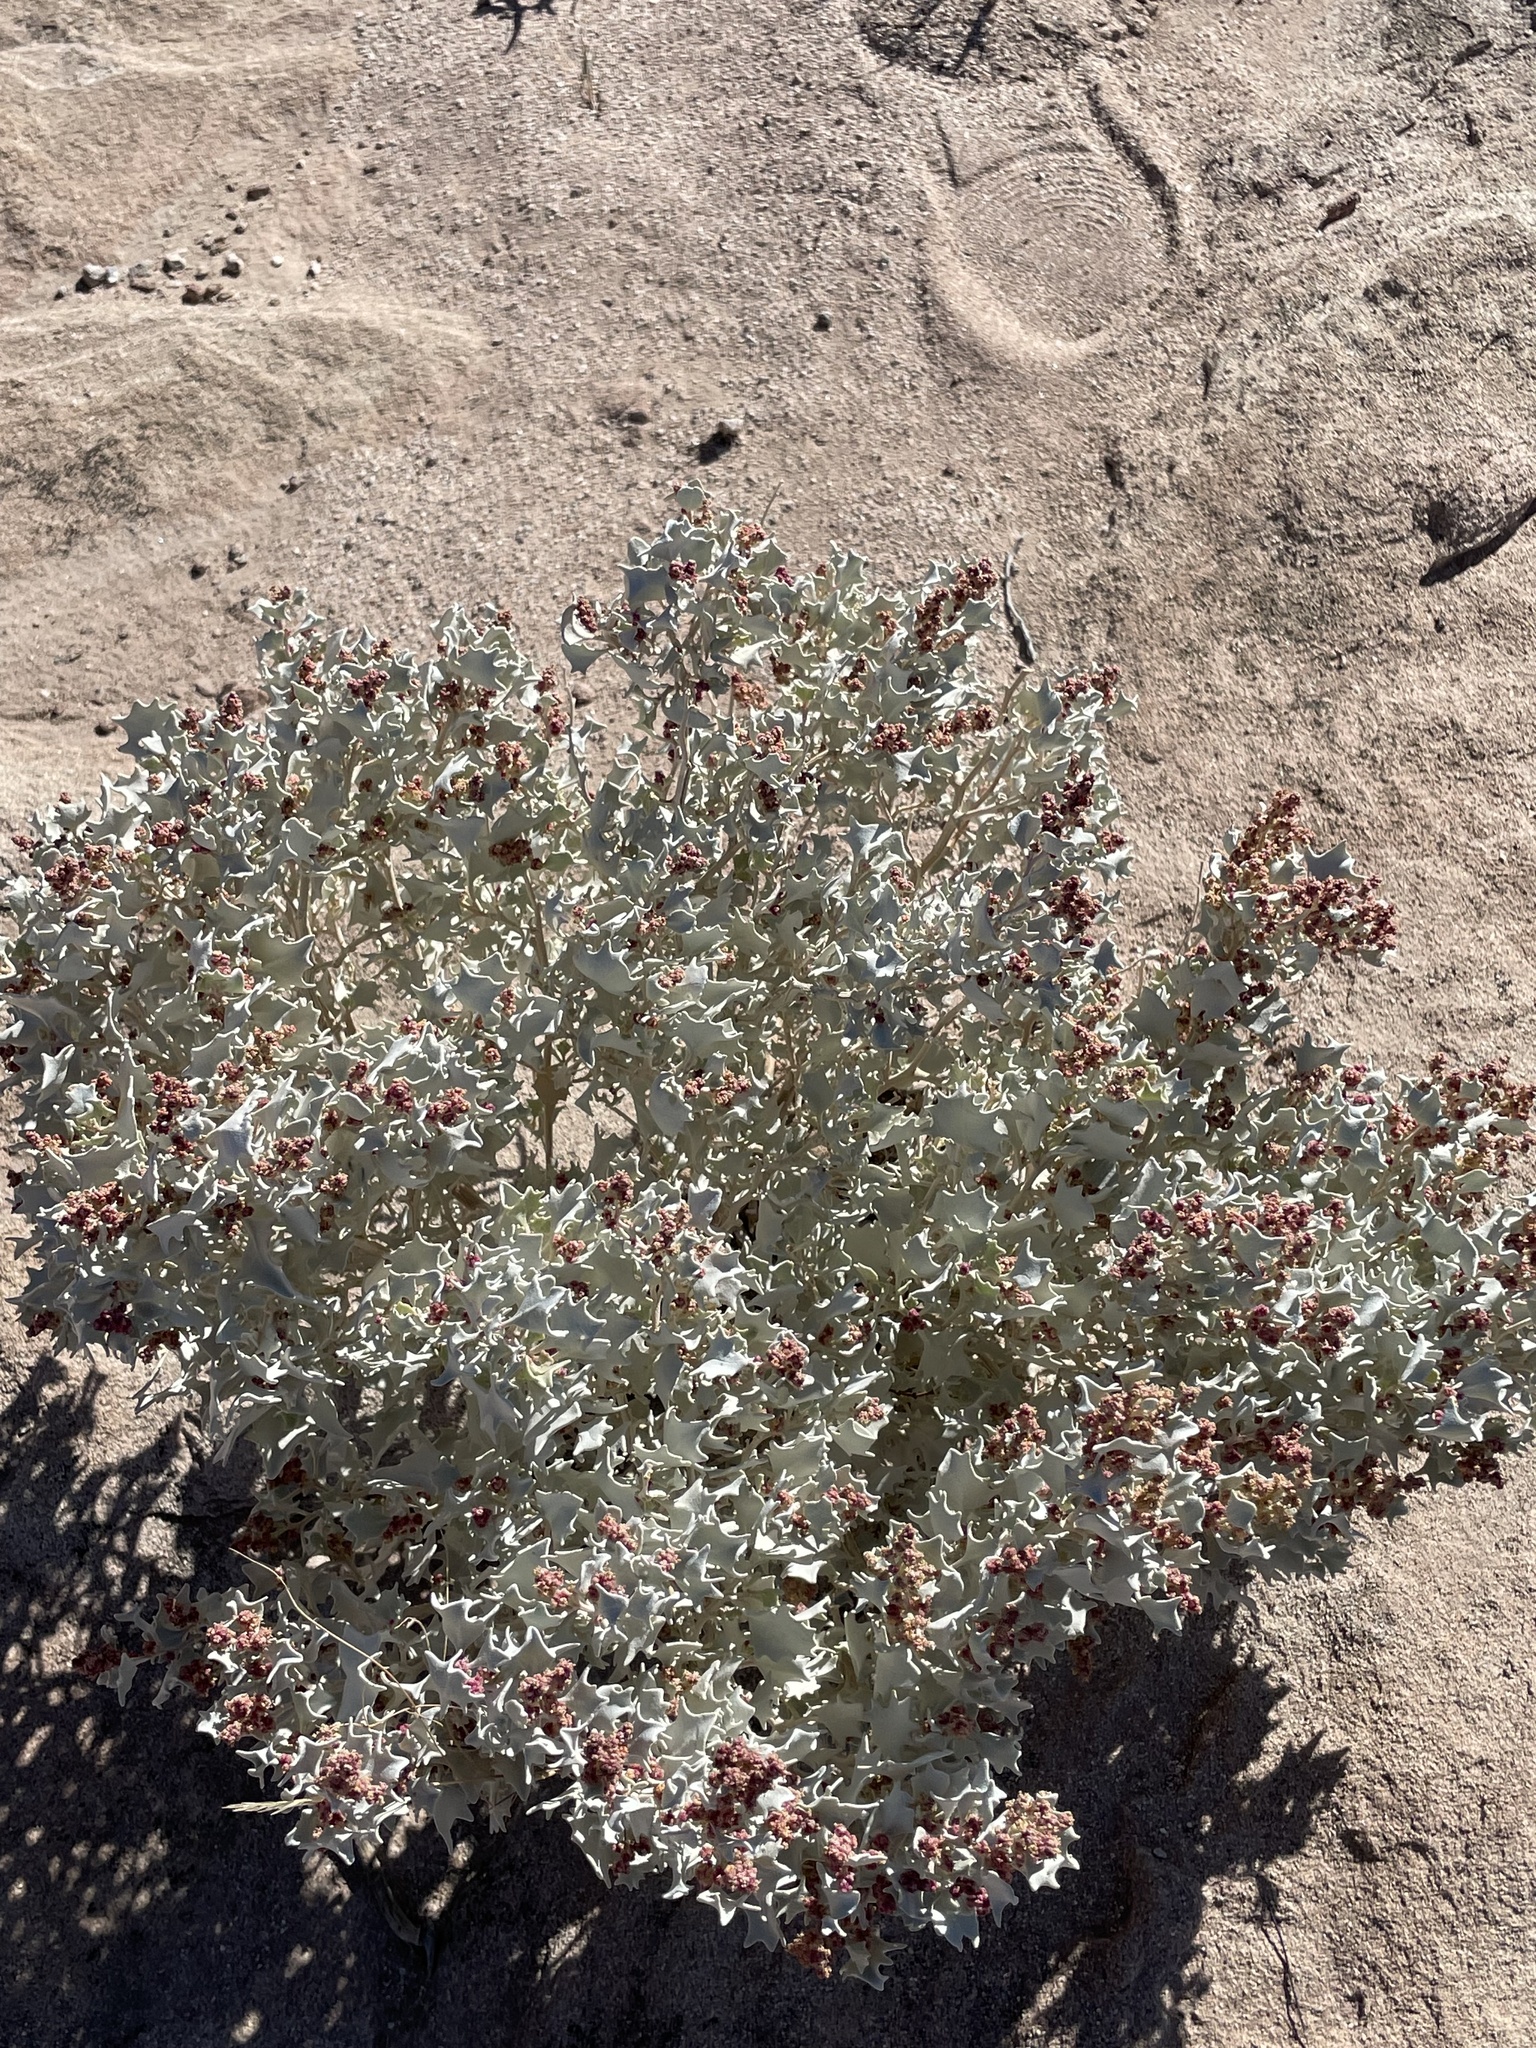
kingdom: Plantae
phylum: Tracheophyta
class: Magnoliopsida
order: Caryophyllales
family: Amaranthaceae
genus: Atriplex
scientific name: Atriplex hymenelytra
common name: Desert-holly
